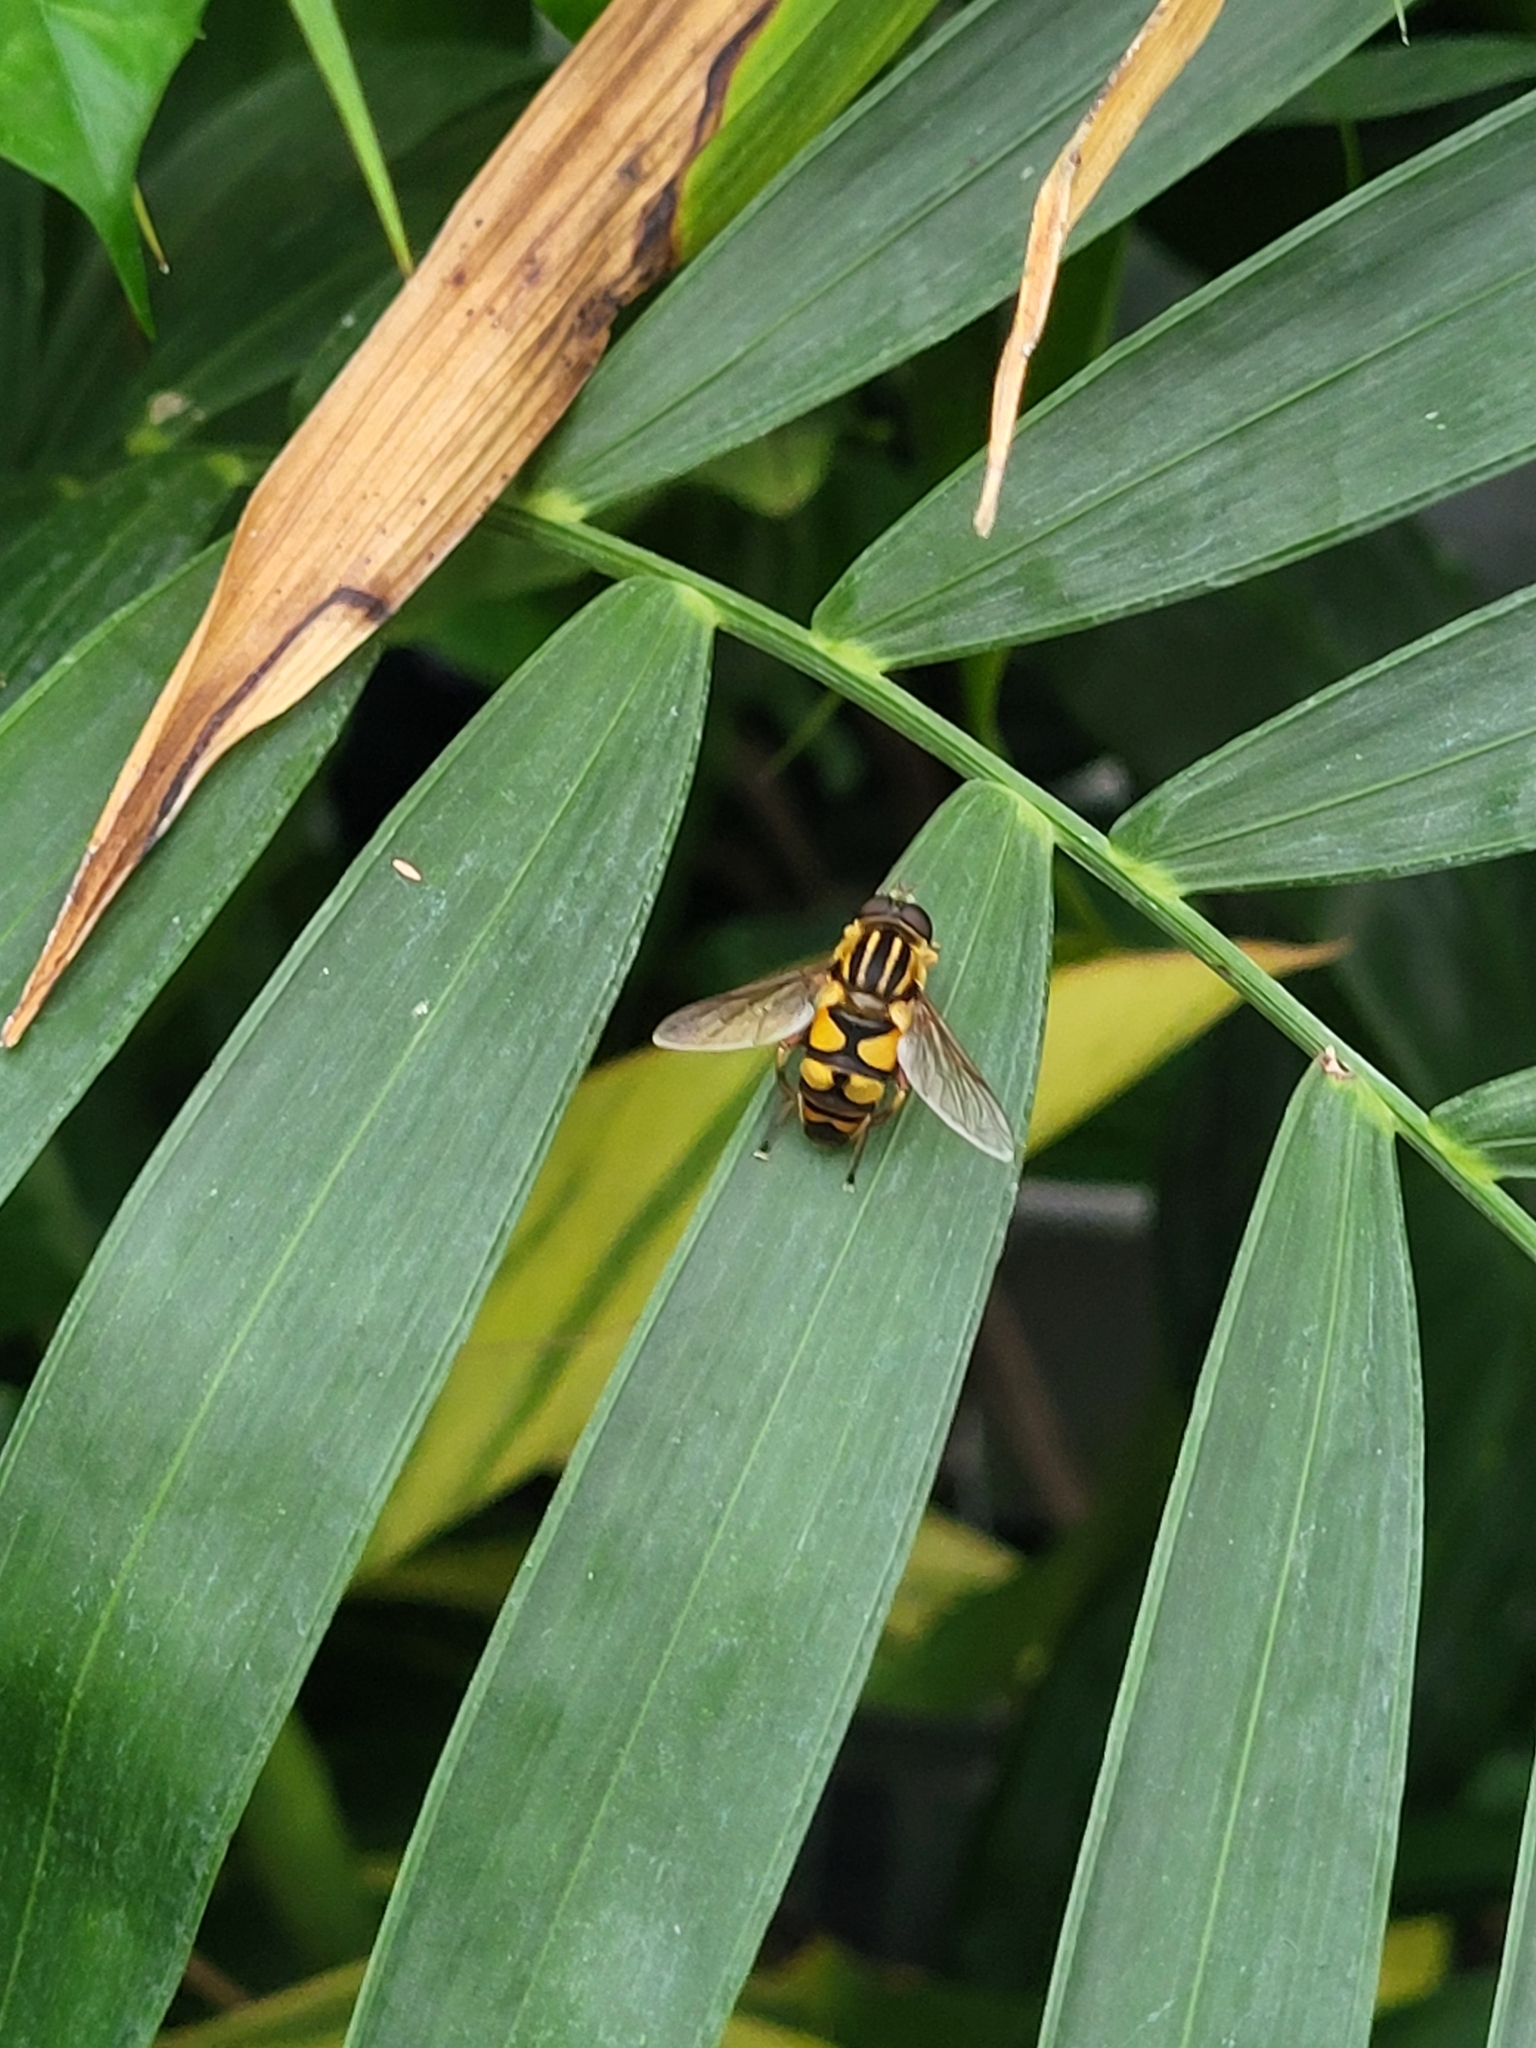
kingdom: Animalia
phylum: Arthropoda
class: Insecta
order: Diptera
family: Syrphidae
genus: Helophilus
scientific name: Helophilus fasciatus
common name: Narrow-headed marsh fly
